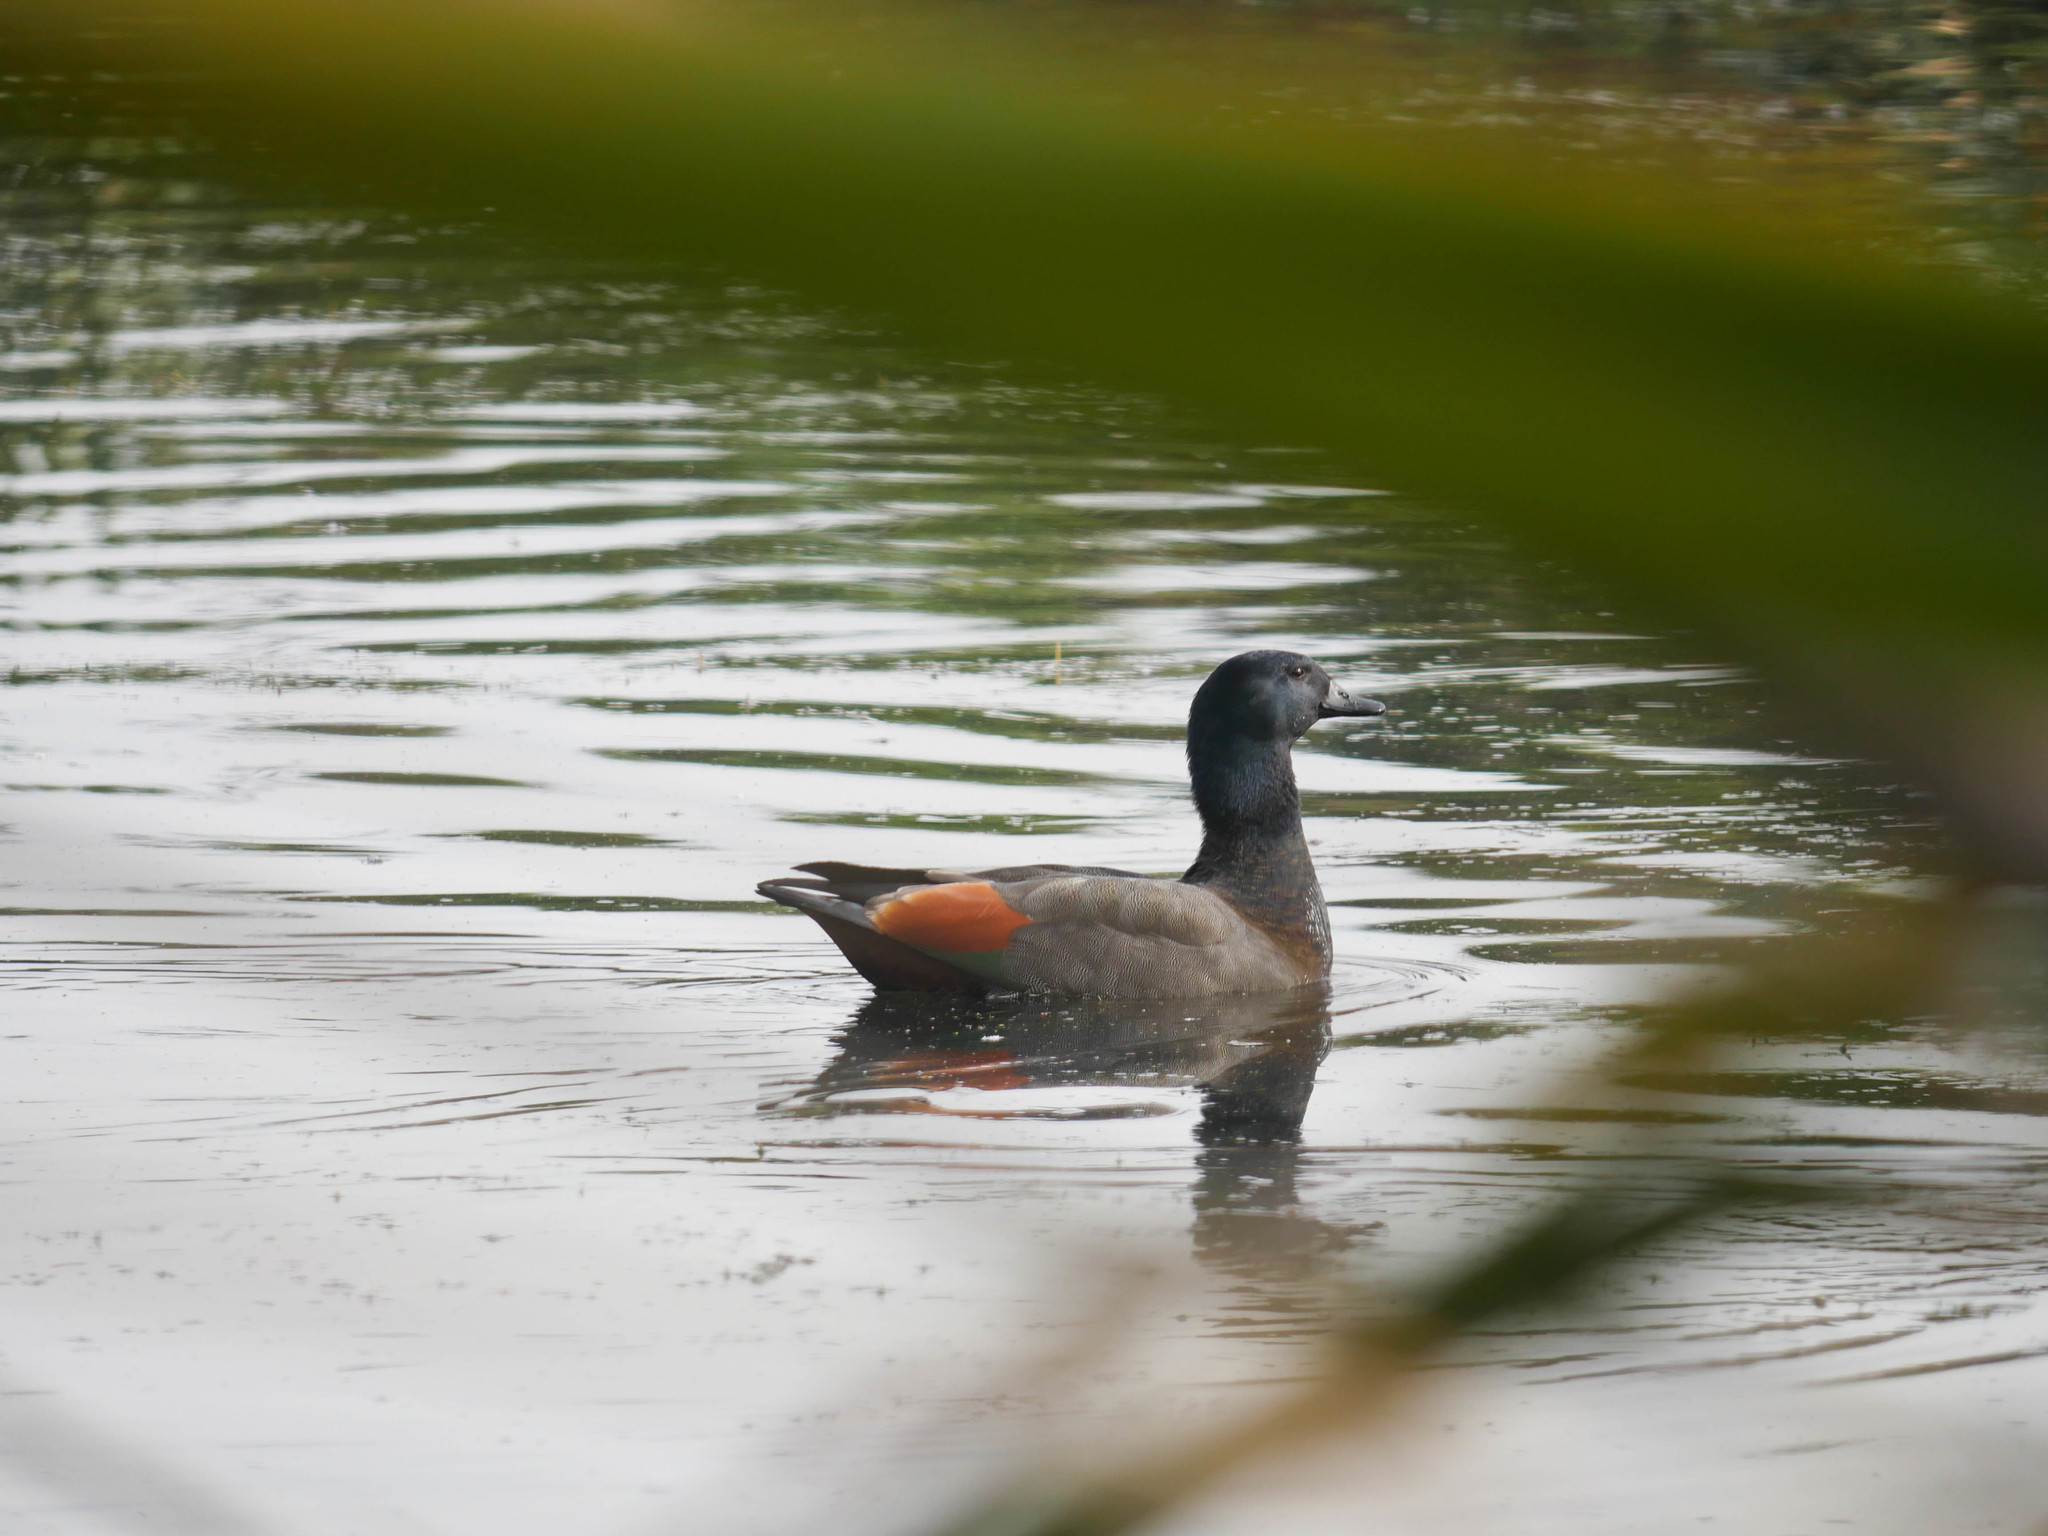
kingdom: Animalia
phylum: Chordata
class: Aves
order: Anseriformes
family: Anatidae
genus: Tadorna
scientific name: Tadorna variegata
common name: Paradise shelduck
